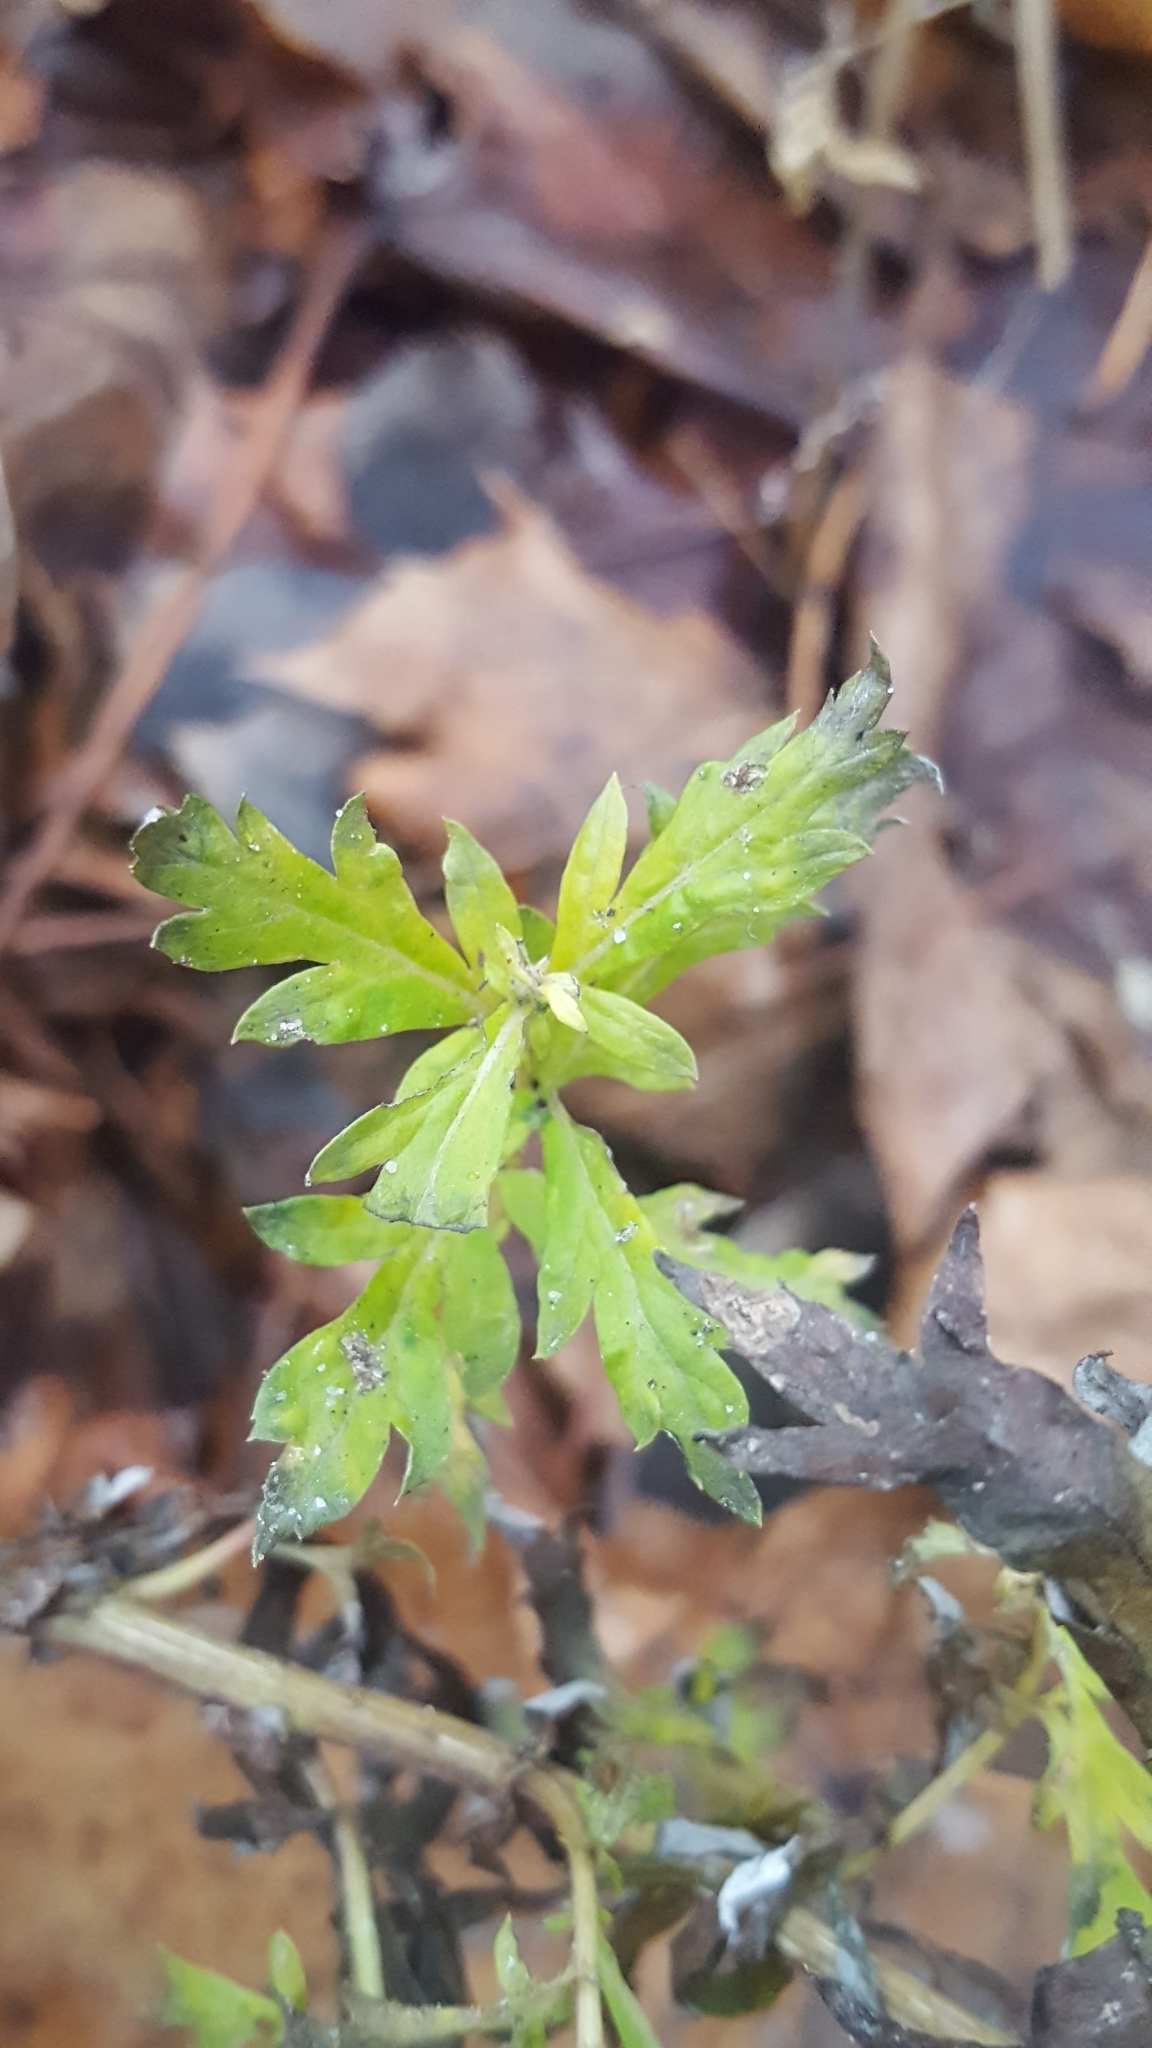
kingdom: Plantae
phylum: Tracheophyta
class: Magnoliopsida
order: Asterales
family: Asteraceae
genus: Artemisia
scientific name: Artemisia vulgaris
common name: Mugwort
